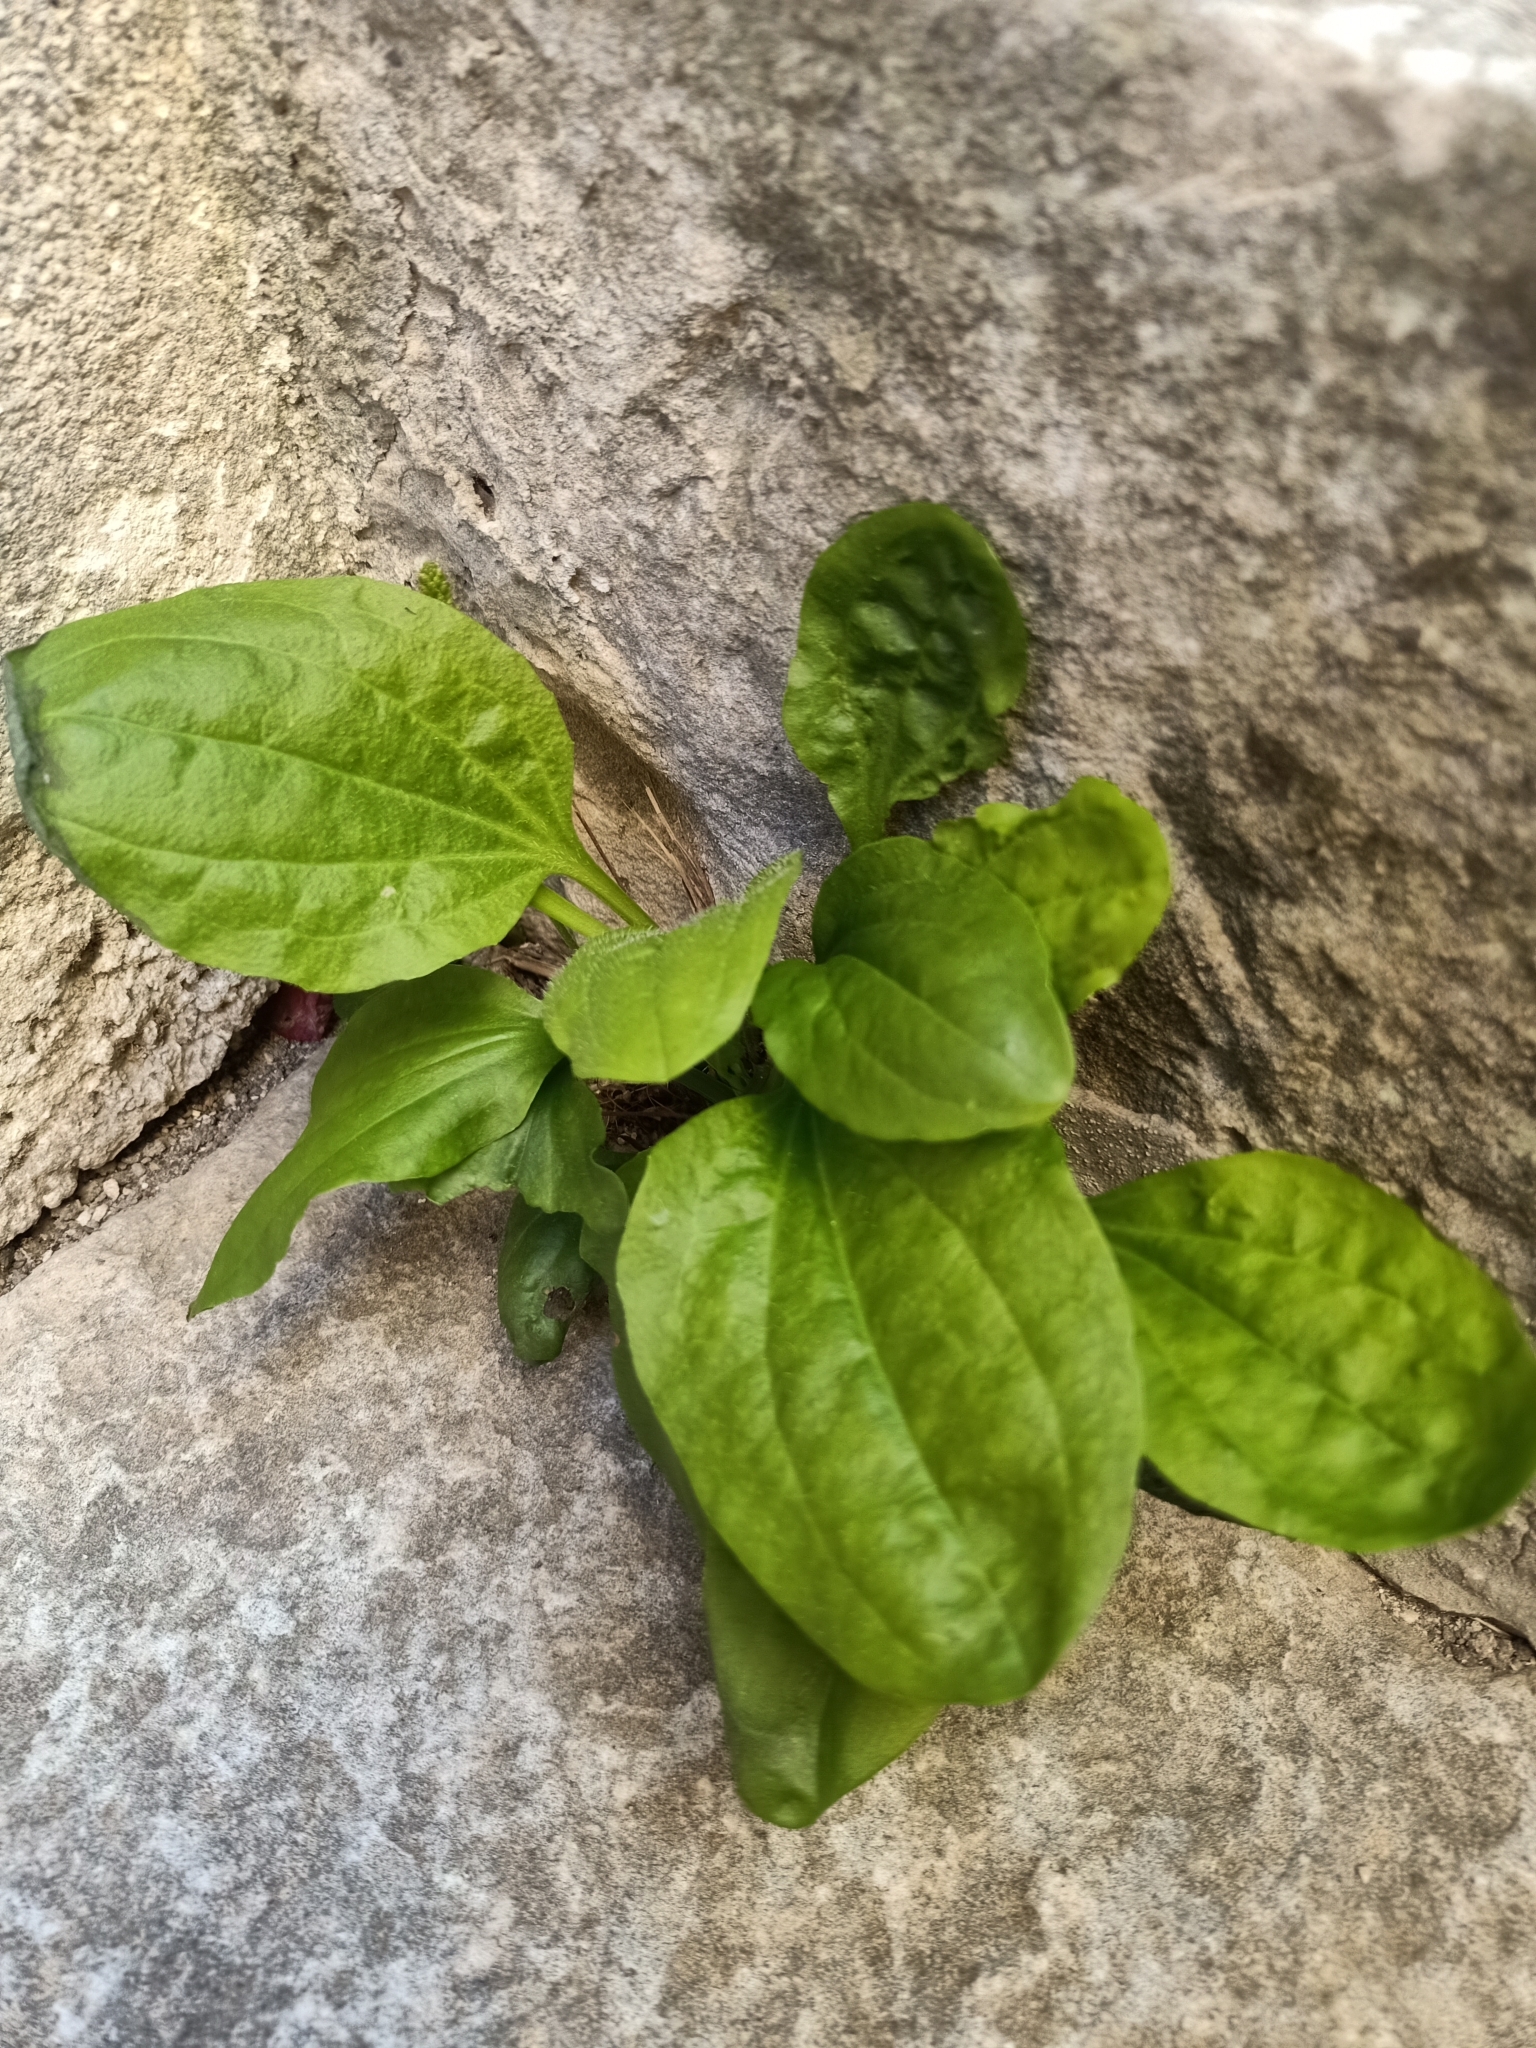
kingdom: Plantae
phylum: Tracheophyta
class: Magnoliopsida
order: Lamiales
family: Plantaginaceae
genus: Plantago
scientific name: Plantago major
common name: Common plantain
